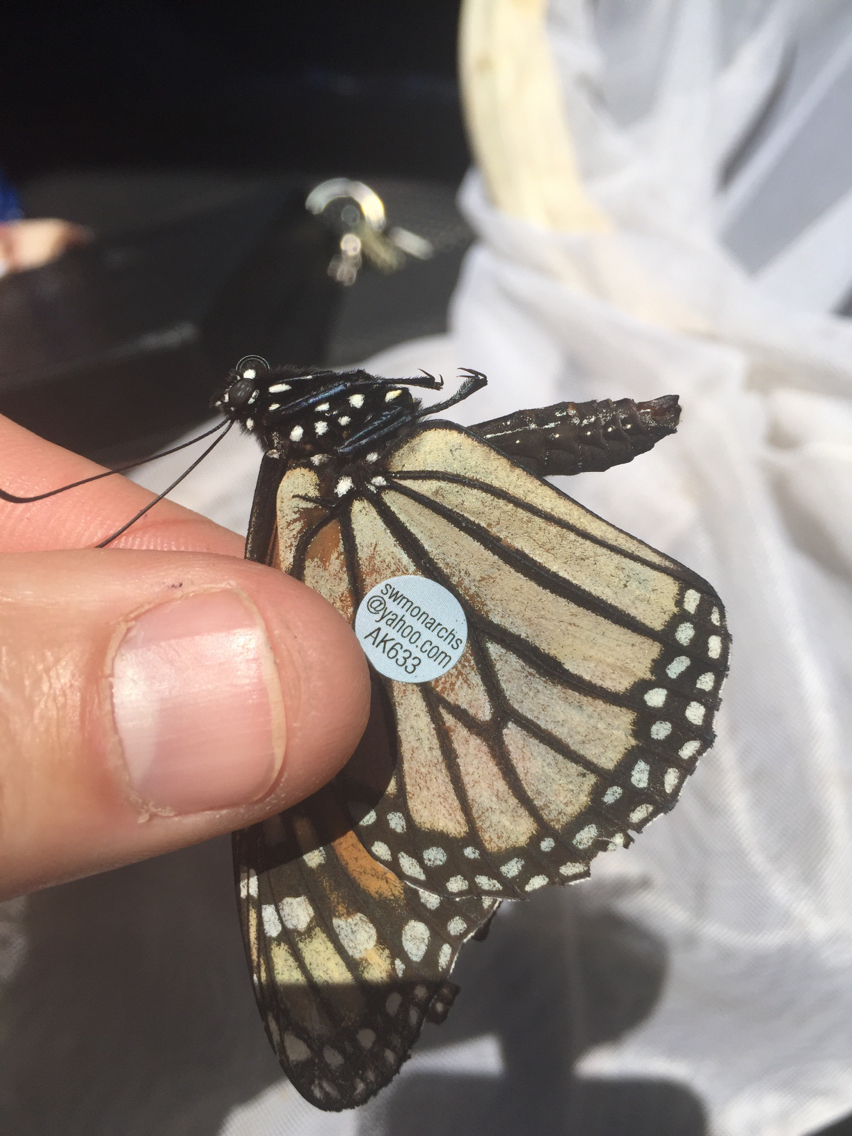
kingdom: Animalia
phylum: Arthropoda
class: Insecta
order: Lepidoptera
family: Nymphalidae
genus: Danaus
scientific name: Danaus plexippus
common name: Monarch
